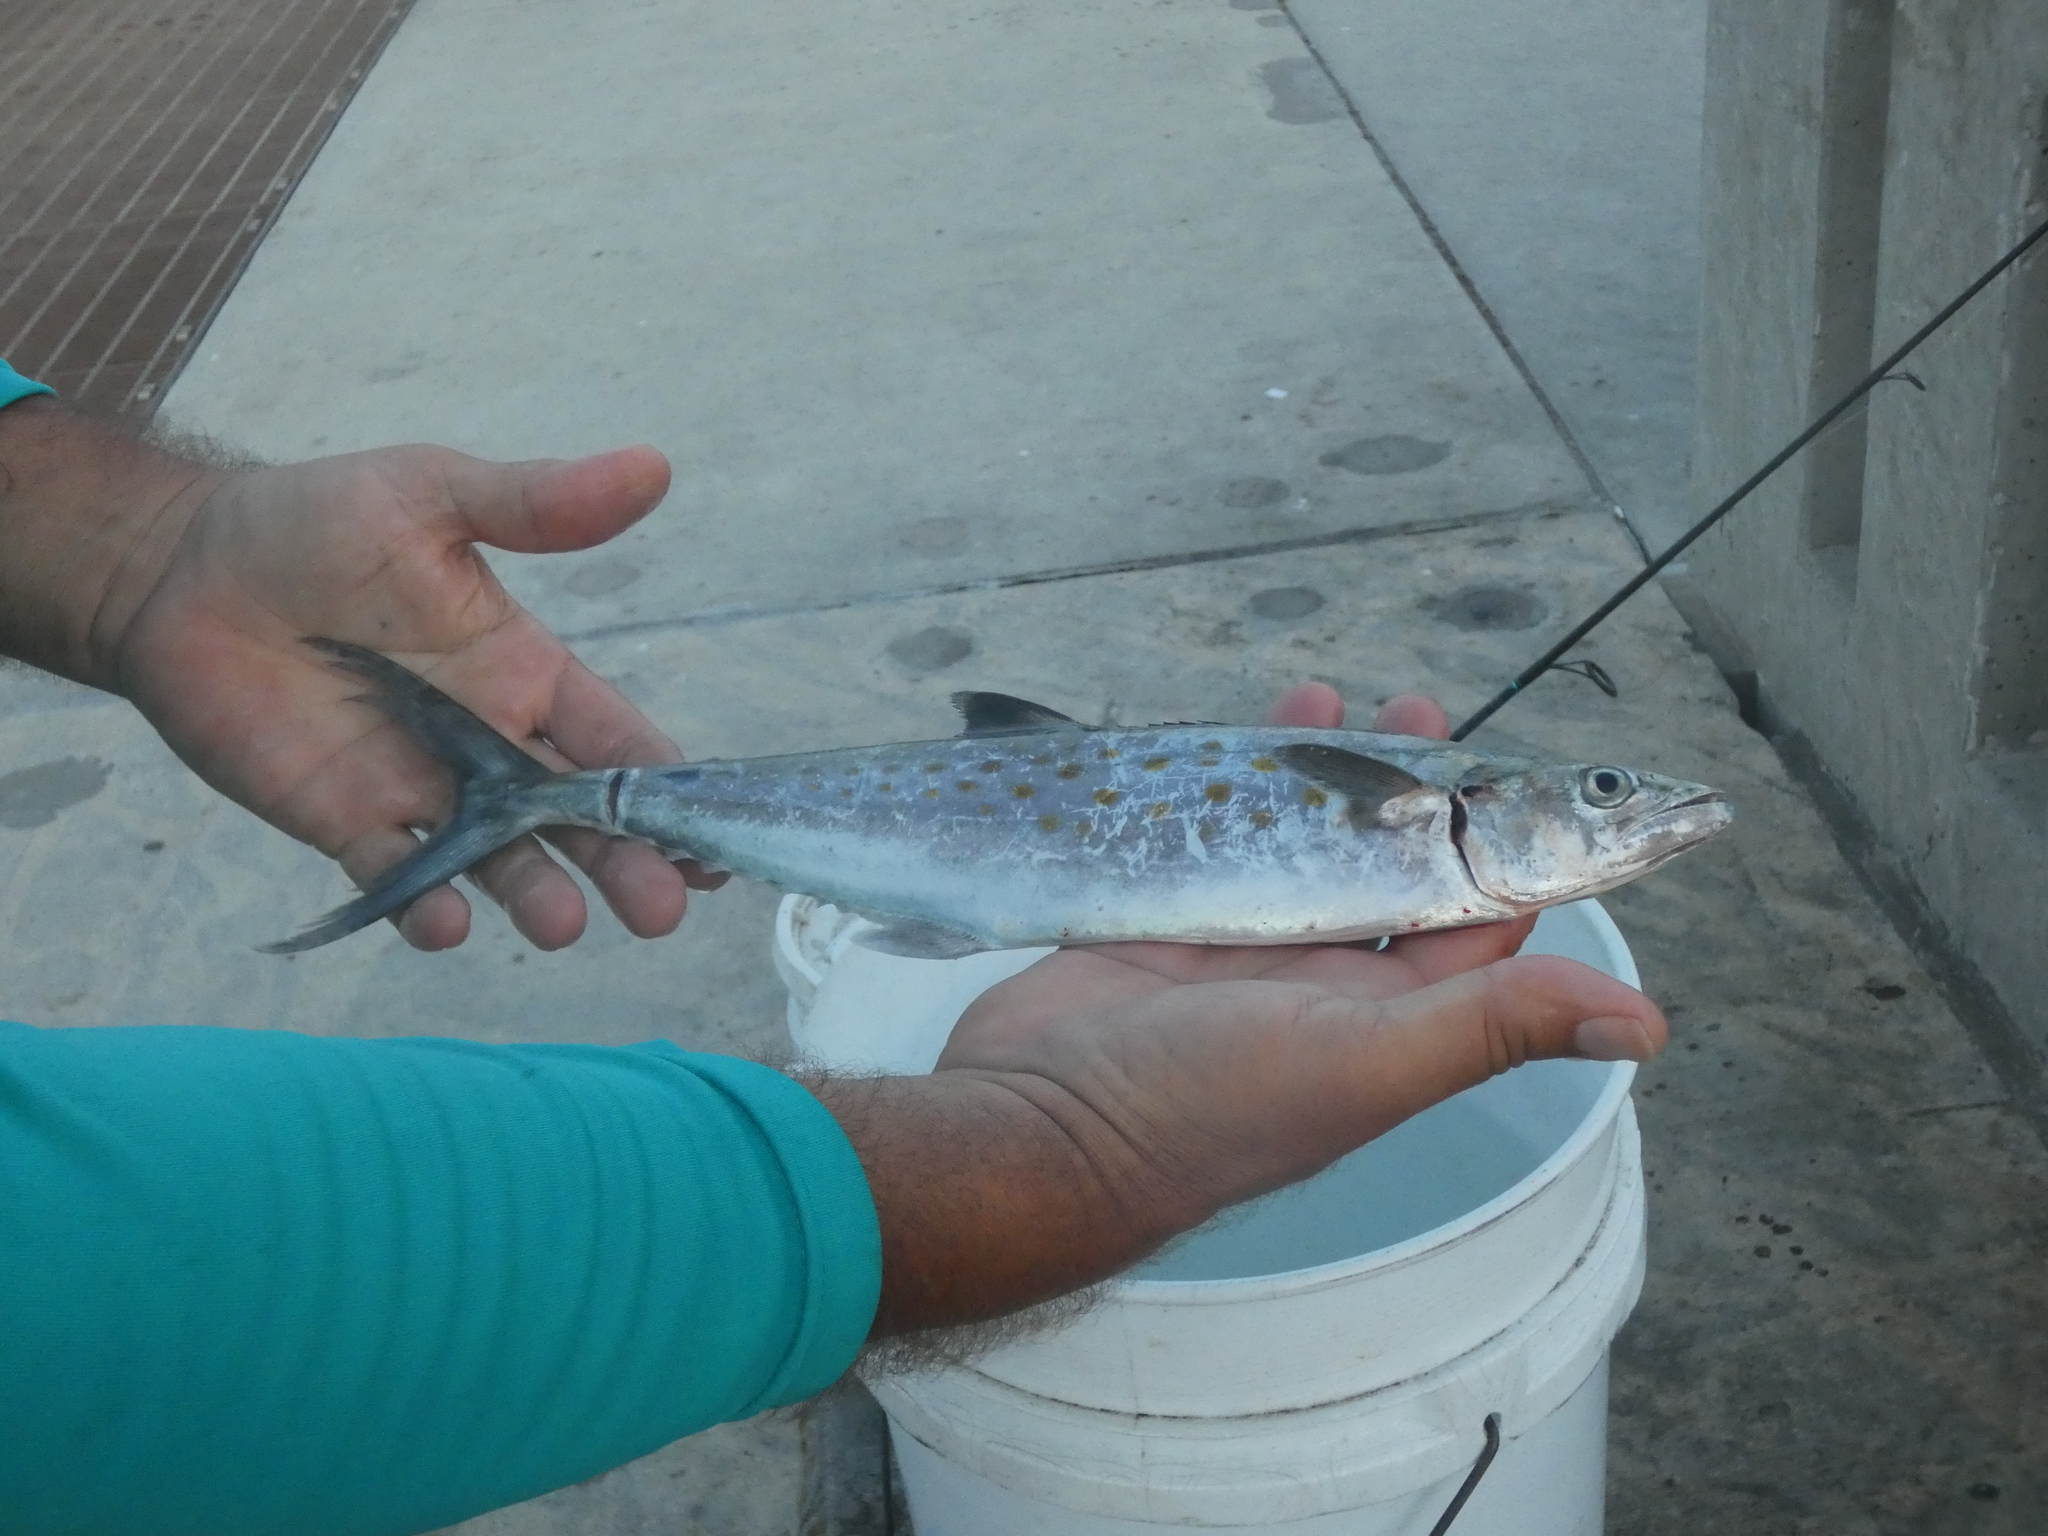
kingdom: Animalia
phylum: Chordata
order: Perciformes
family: Scombridae
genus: Scomberomorus
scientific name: Scomberomorus maculatus
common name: Spanish mackerel
